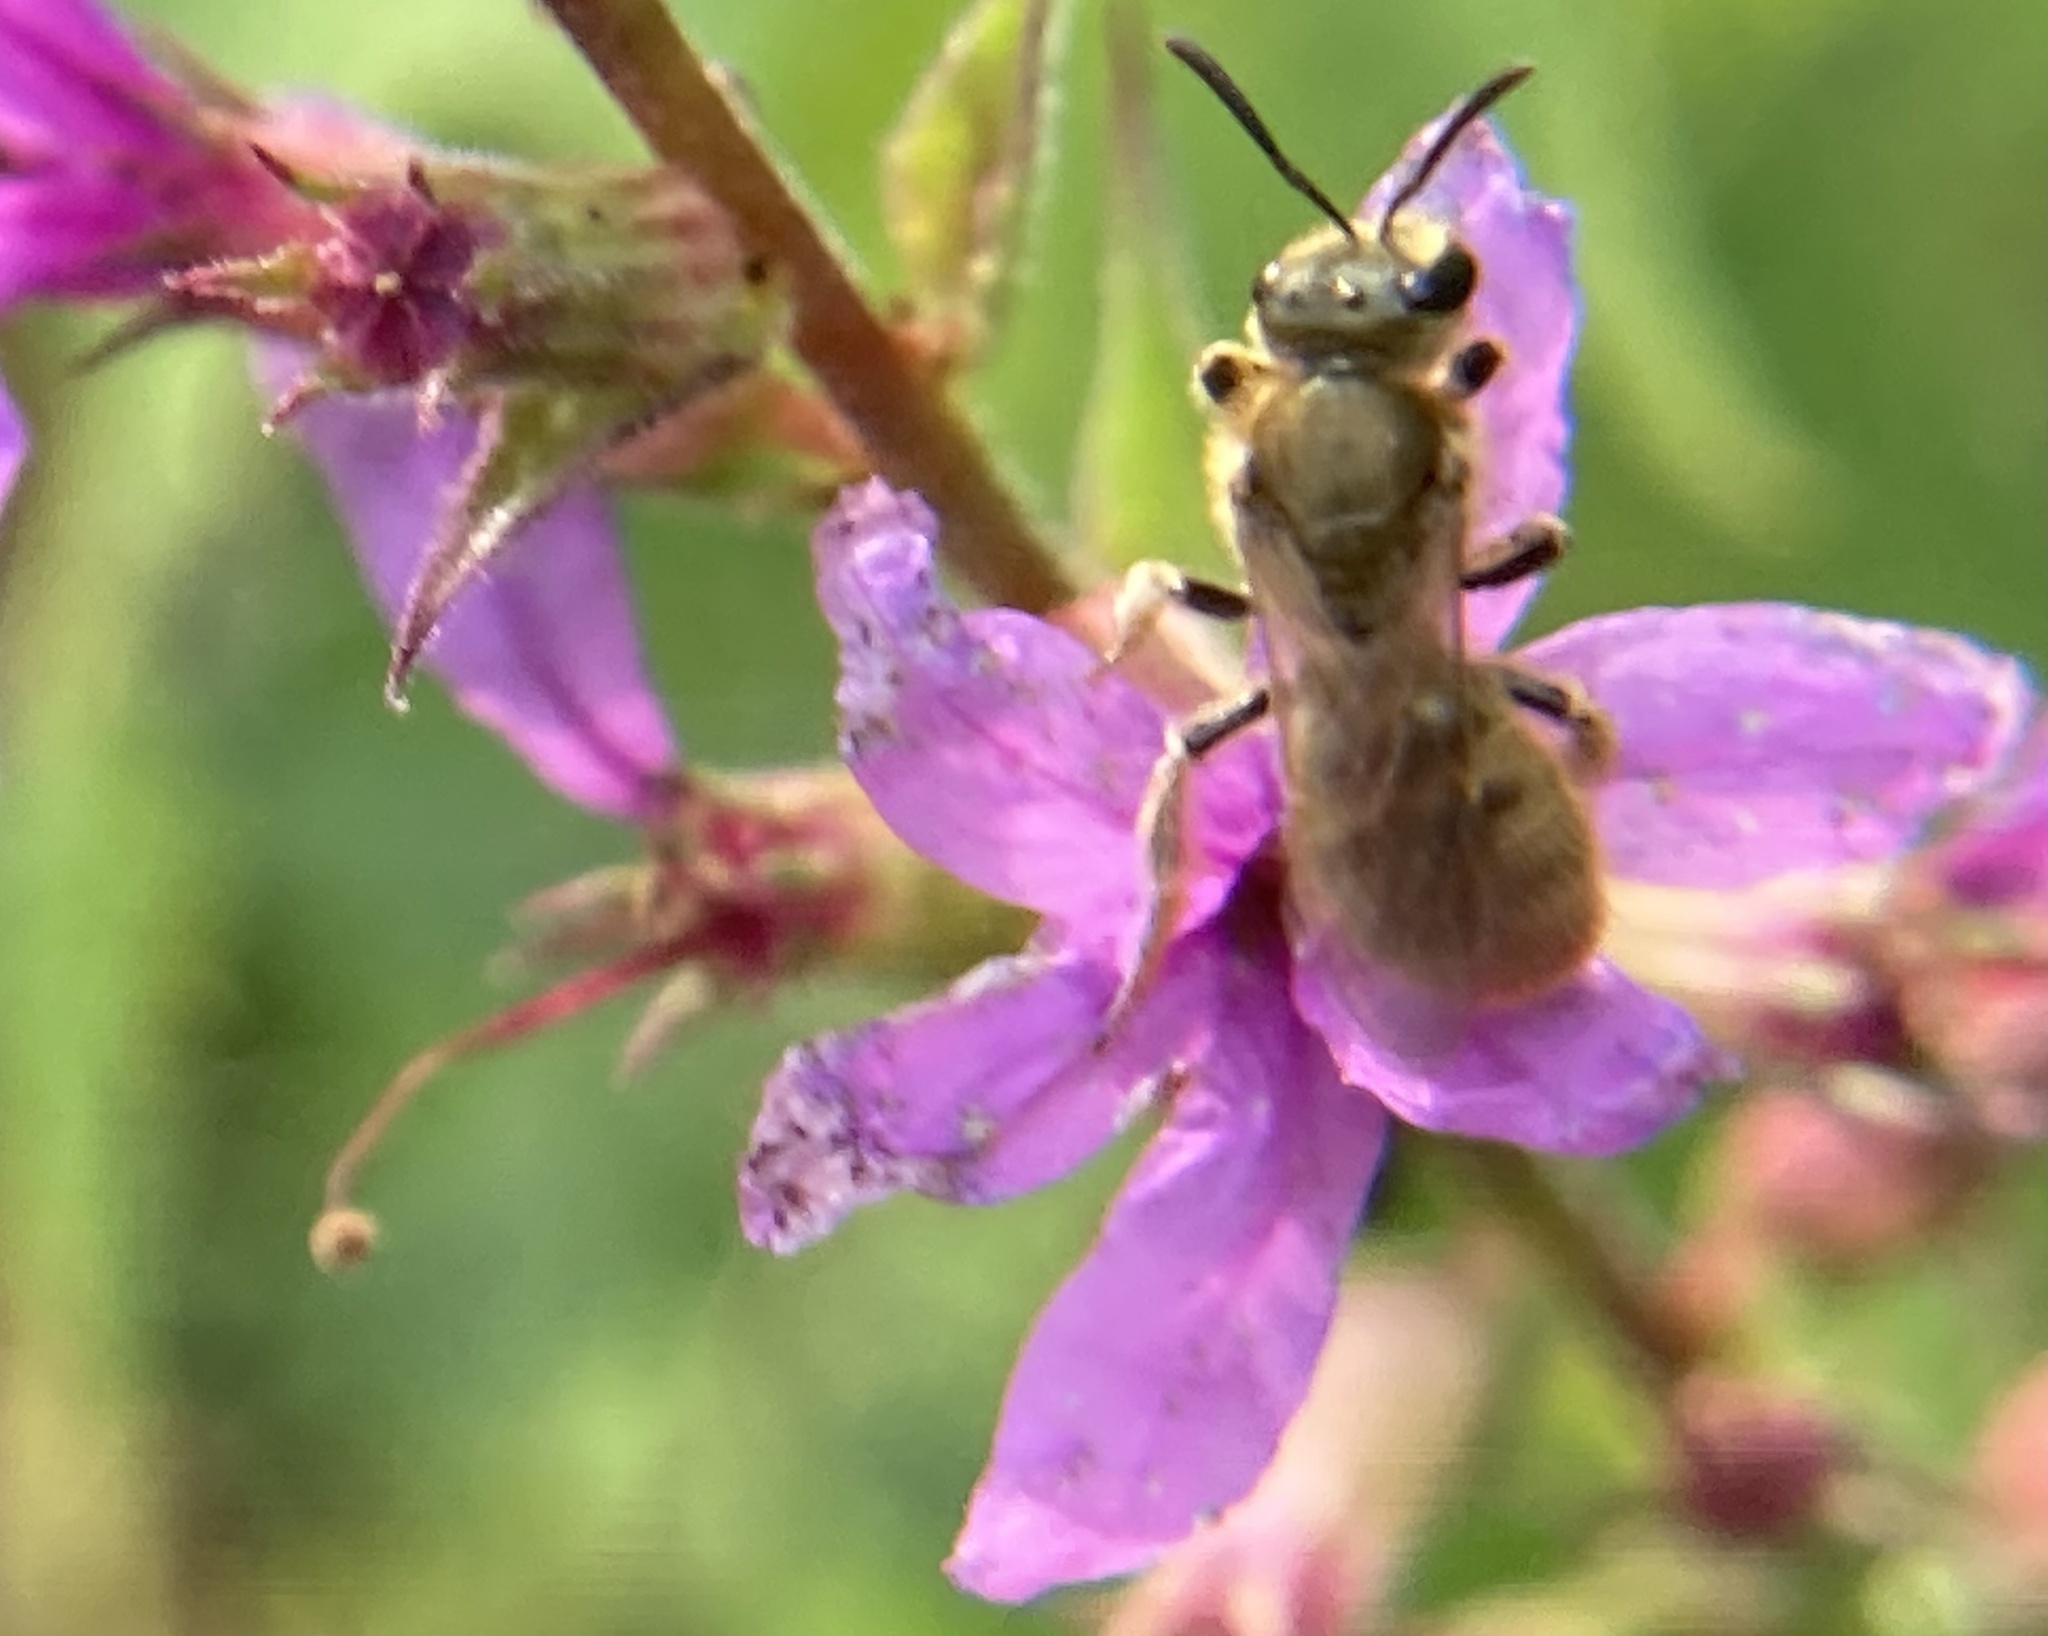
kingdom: Animalia
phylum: Arthropoda
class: Insecta
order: Hymenoptera
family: Halictidae
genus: Lasioglossum
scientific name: Lasioglossum
